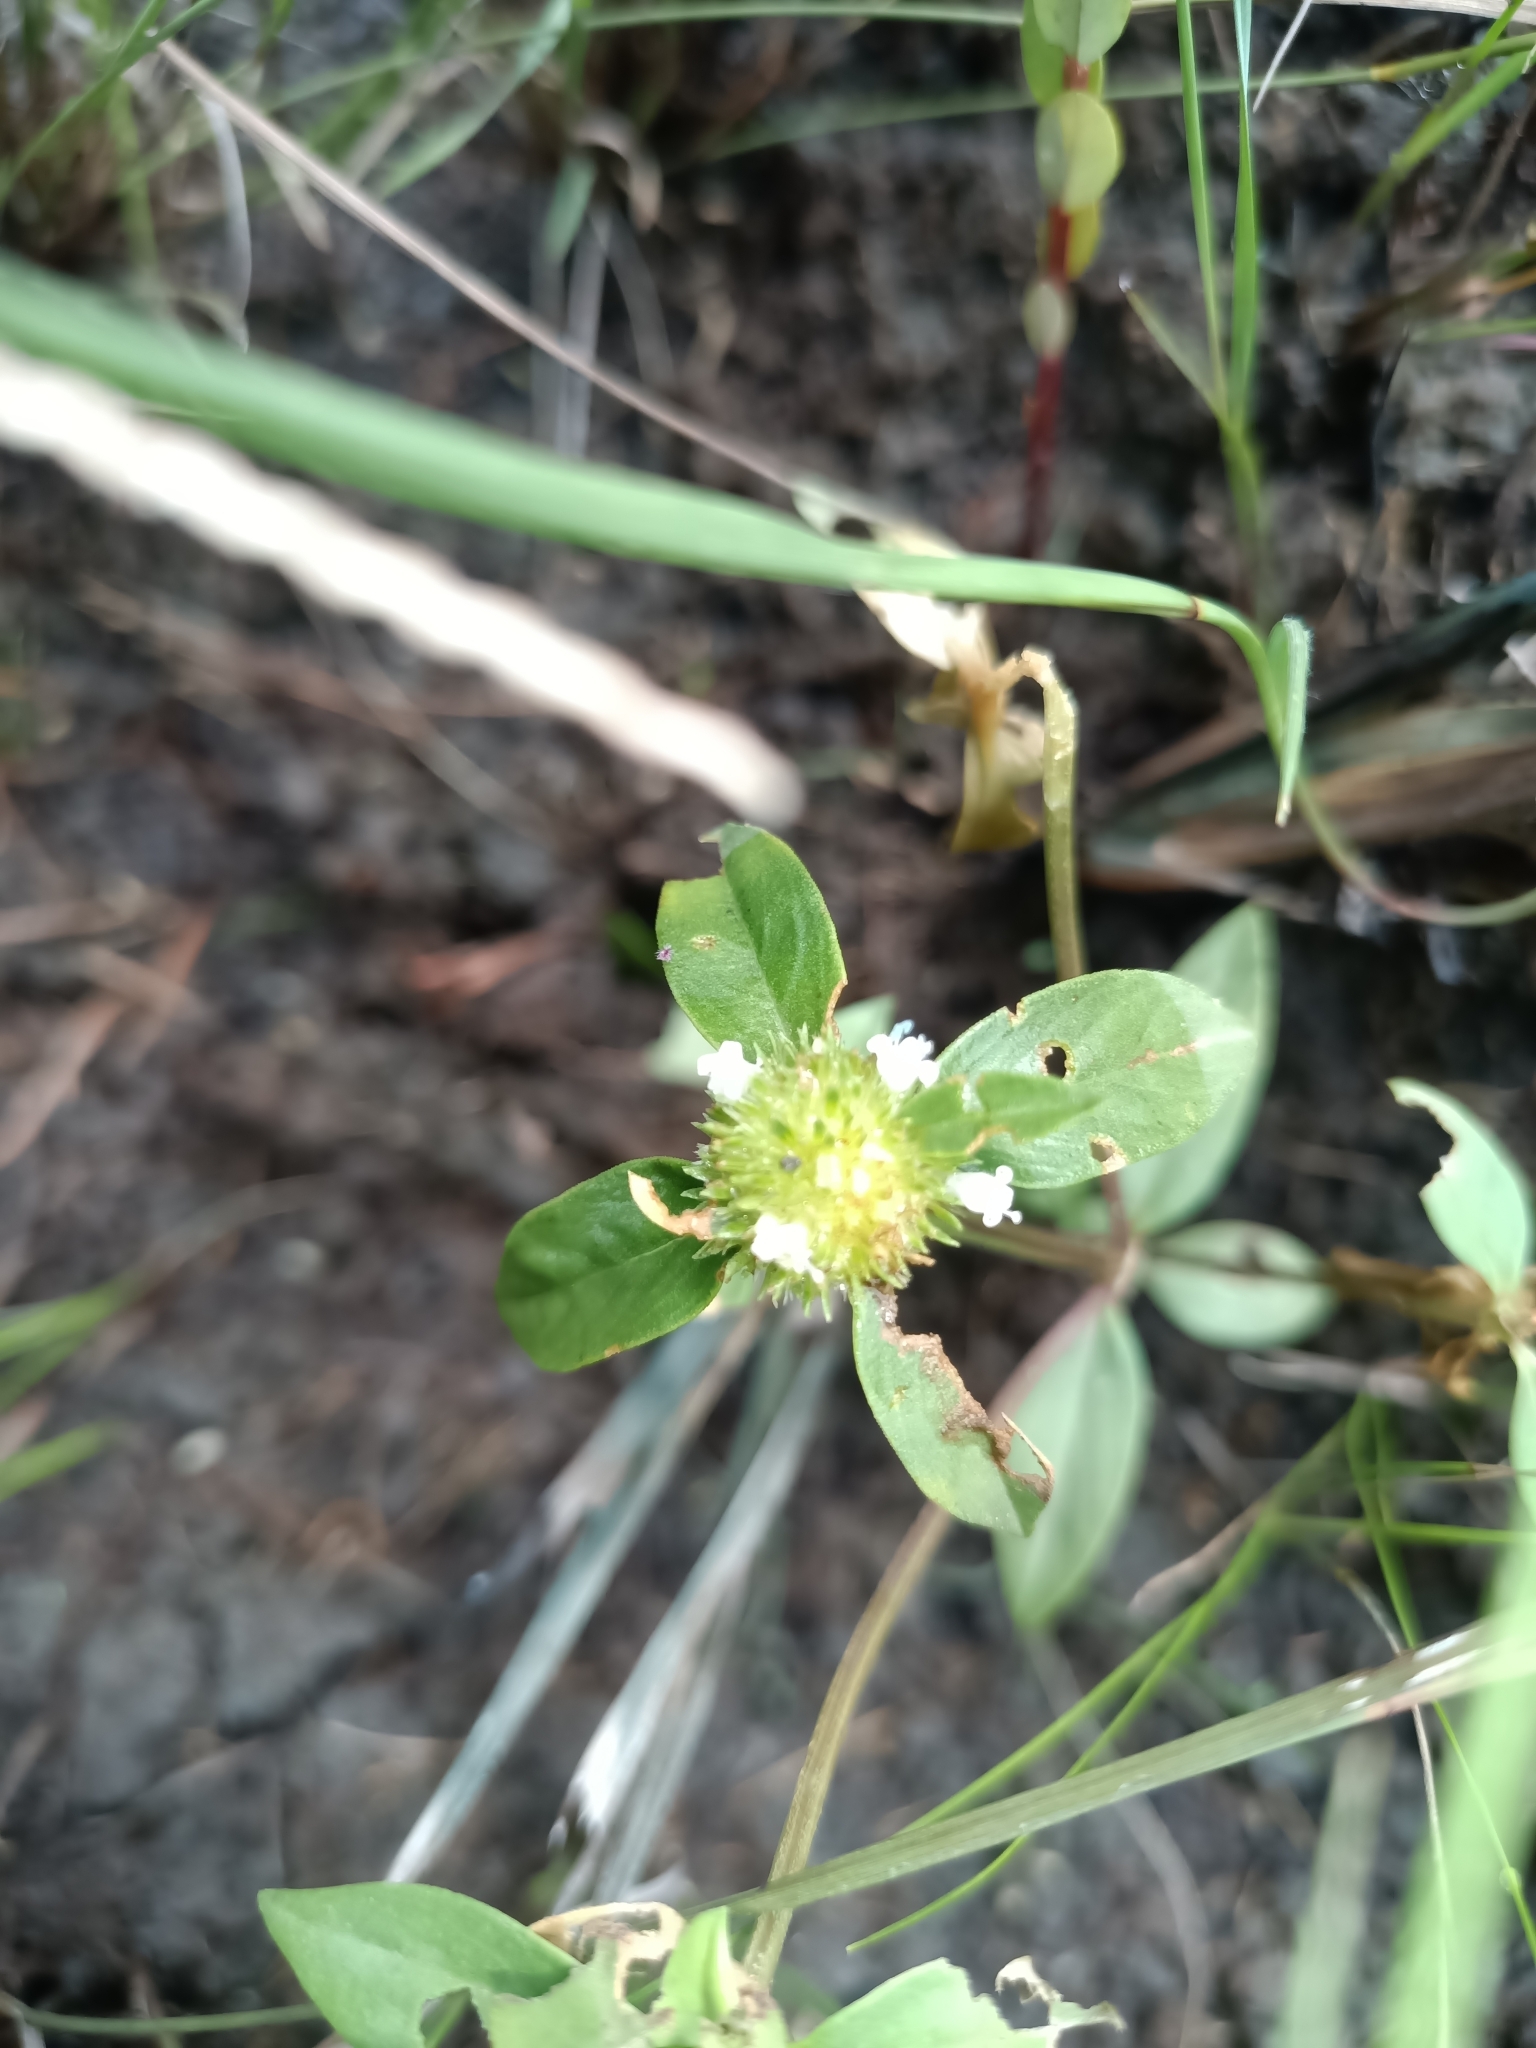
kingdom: Plantae
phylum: Tracheophyta
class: Magnoliopsida
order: Gentianales
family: Rubiaceae
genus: Spermacoce
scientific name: Spermacoce capitata
